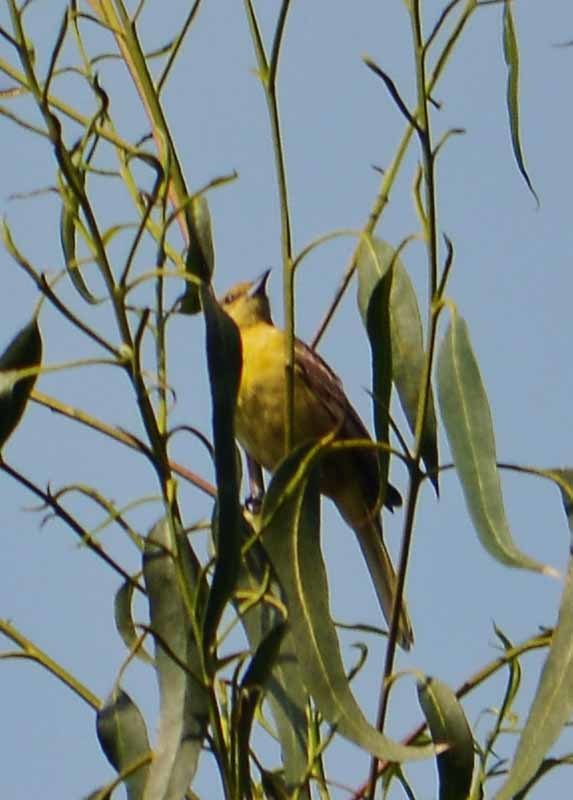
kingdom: Animalia
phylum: Chordata
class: Aves
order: Passeriformes
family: Icteridae
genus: Icterus
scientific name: Icterus spurius
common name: Orchard oriole
